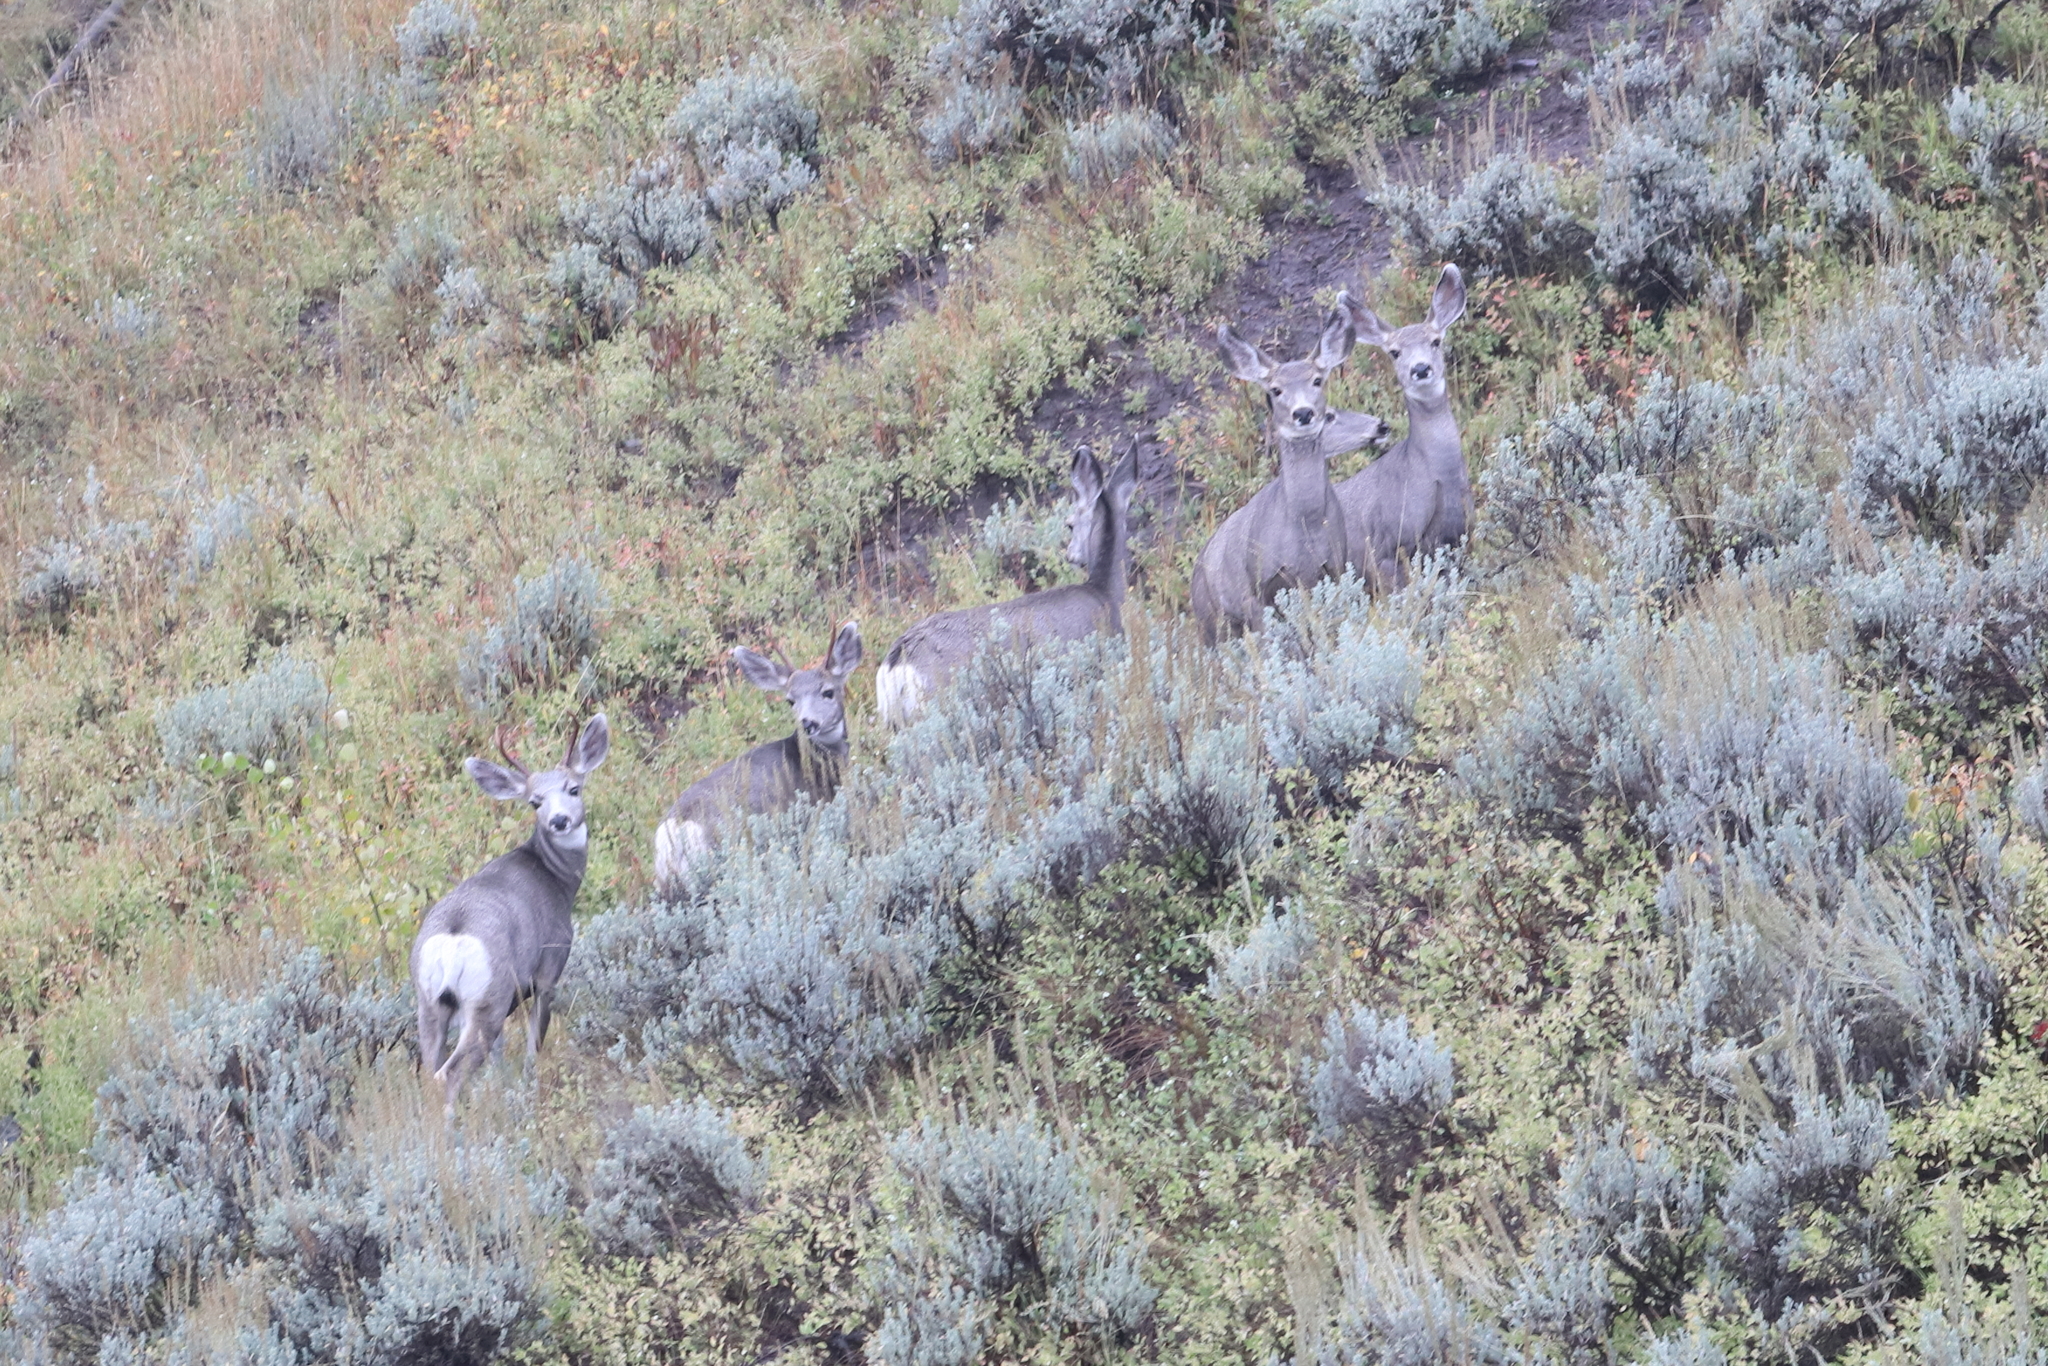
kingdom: Animalia
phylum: Chordata
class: Mammalia
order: Artiodactyla
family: Cervidae
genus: Odocoileus
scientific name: Odocoileus hemionus
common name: Mule deer
